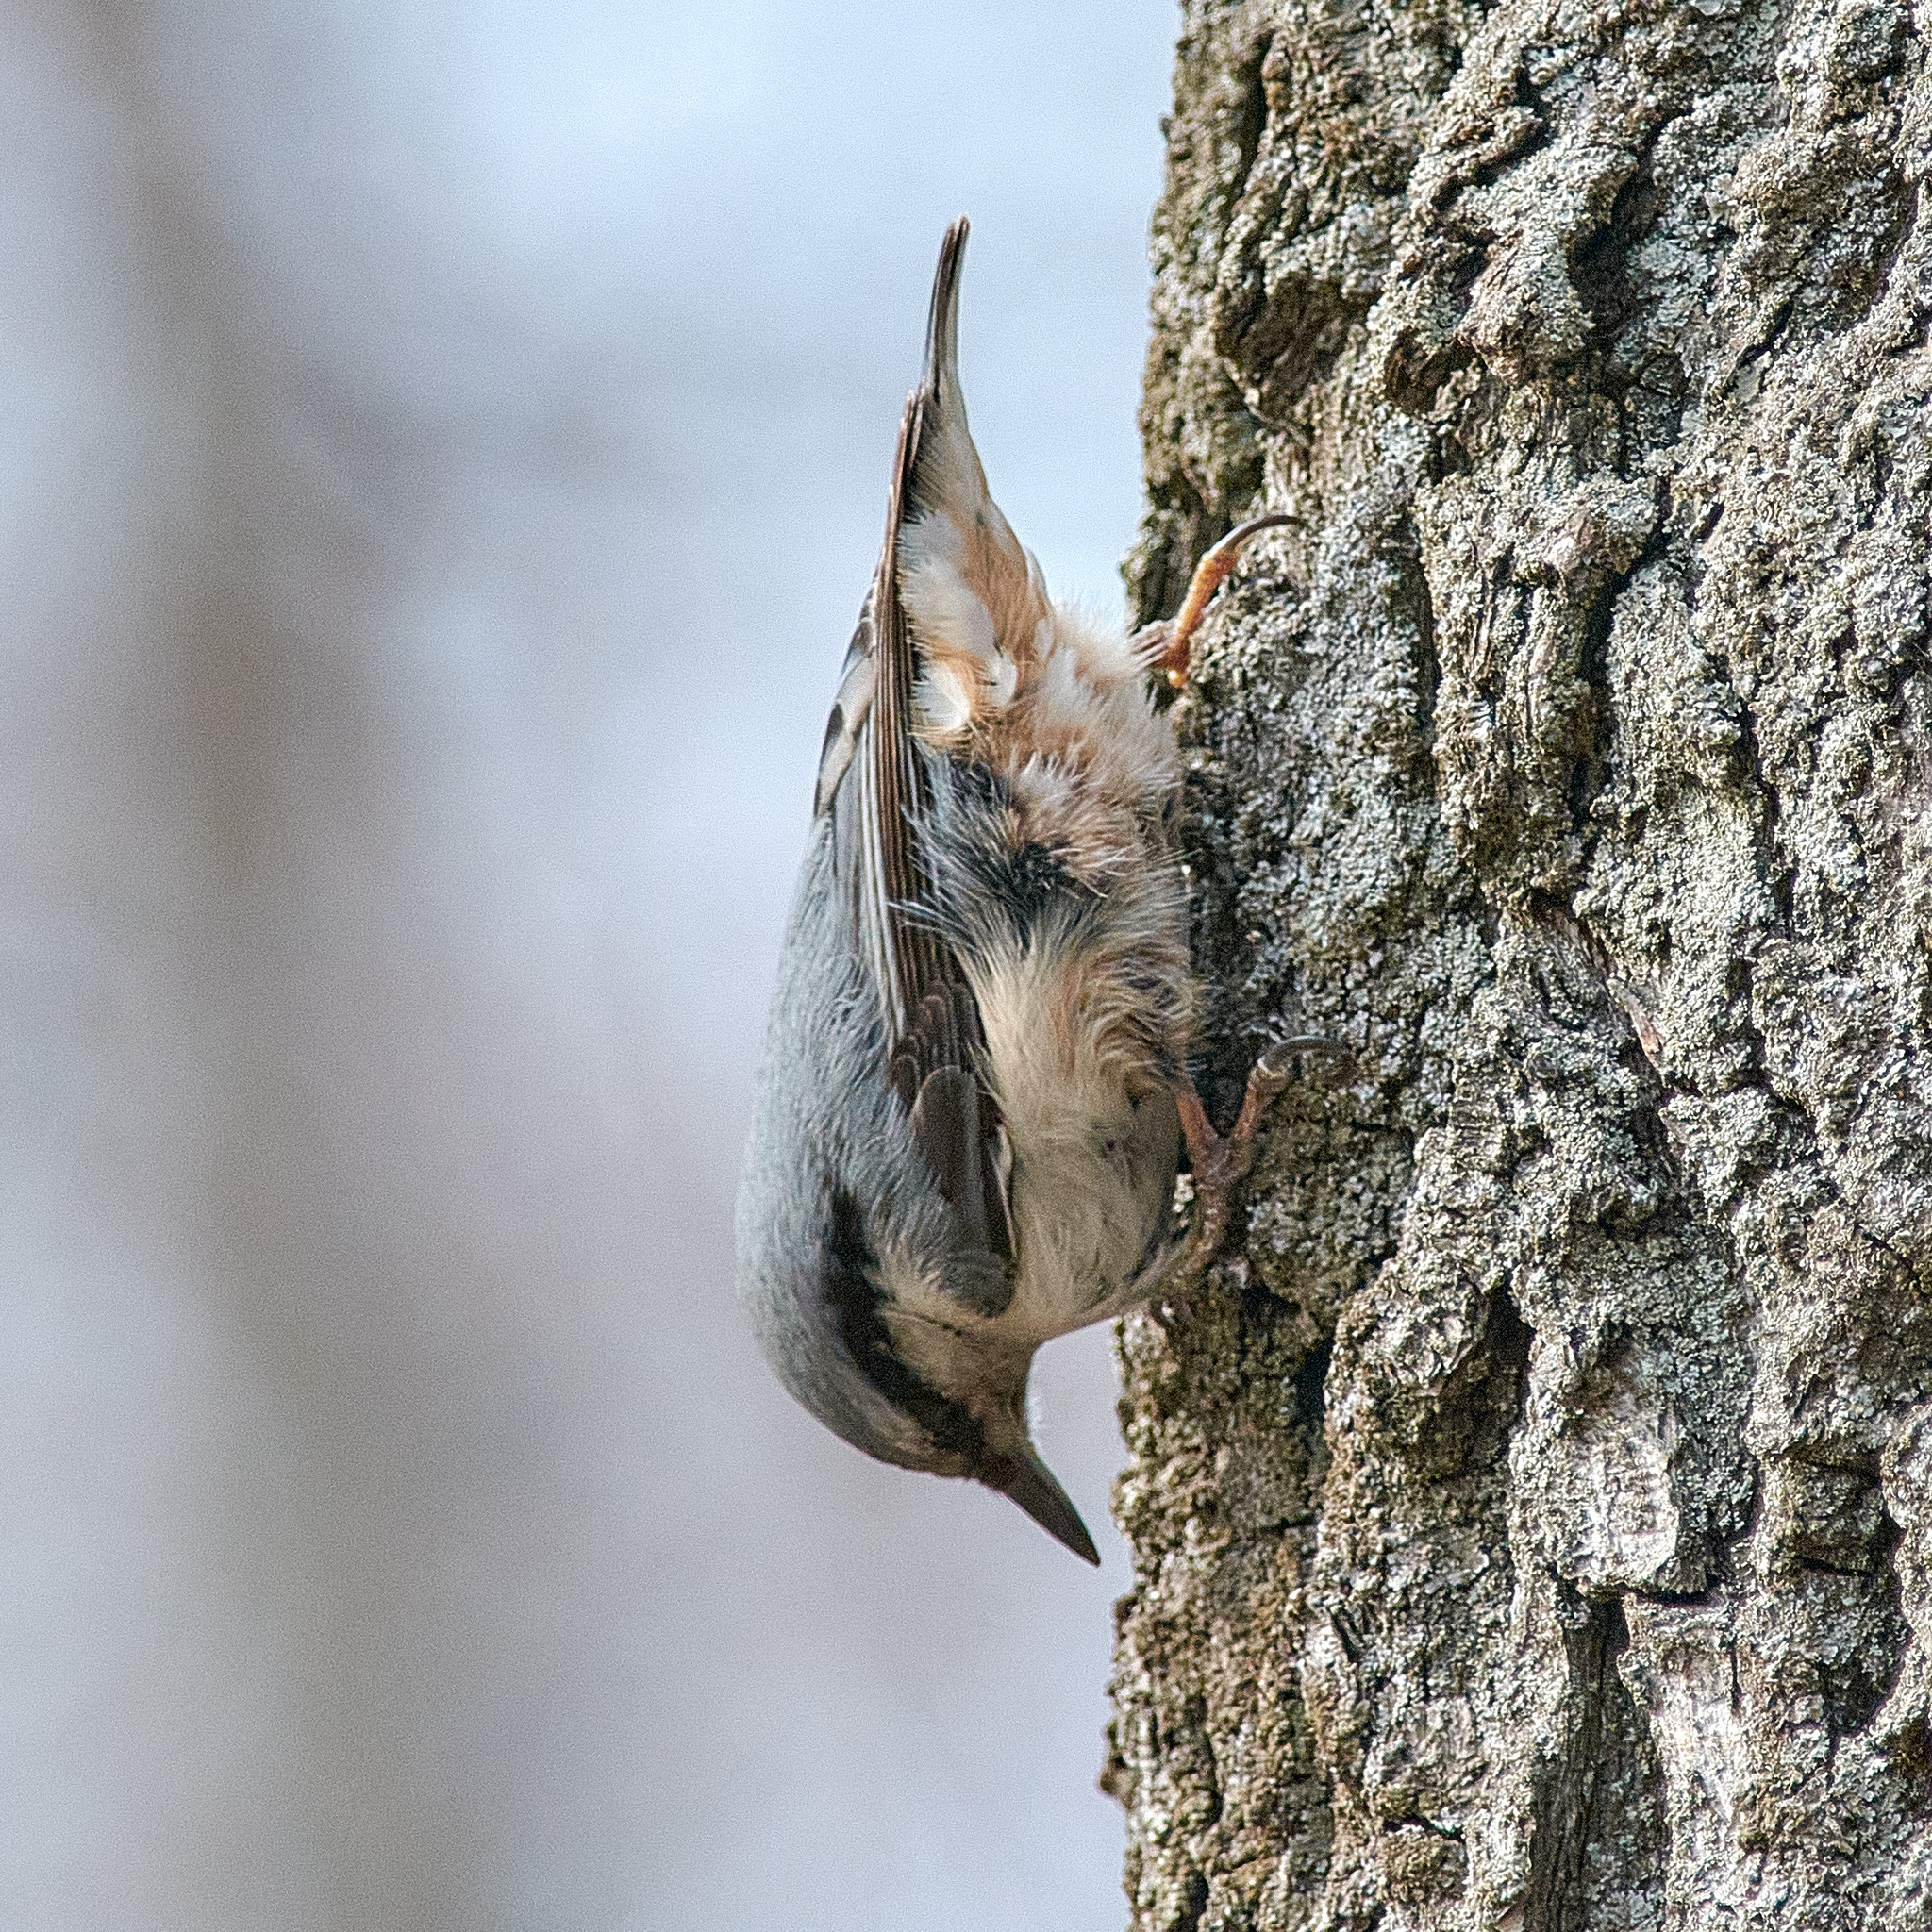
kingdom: Animalia
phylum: Chordata
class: Aves
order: Passeriformes
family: Sittidae
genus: Sitta
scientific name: Sitta europaea
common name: Eurasian nuthatch
